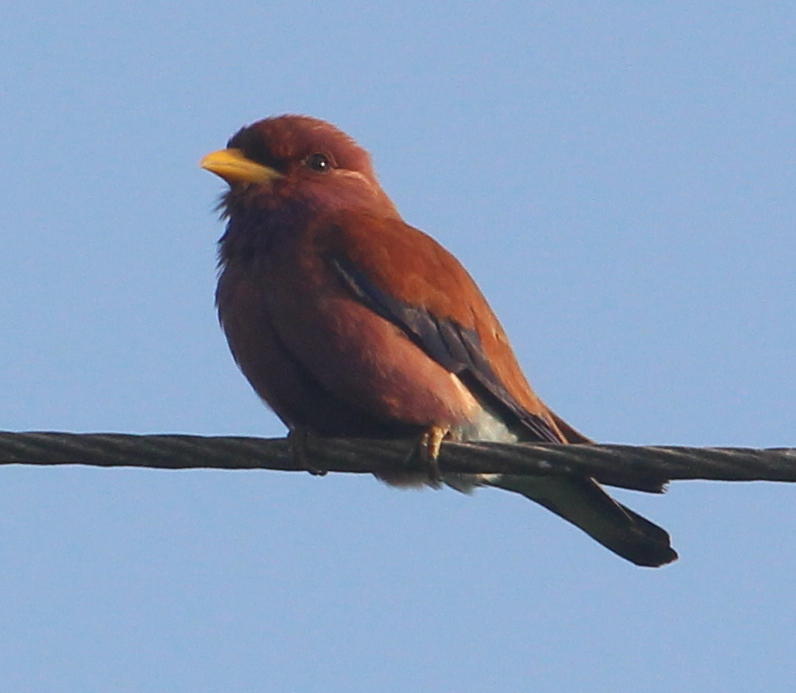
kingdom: Animalia
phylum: Chordata
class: Aves
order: Coraciiformes
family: Coraciidae
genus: Eurystomus
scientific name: Eurystomus glaucurus
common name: Broad-billed roller
